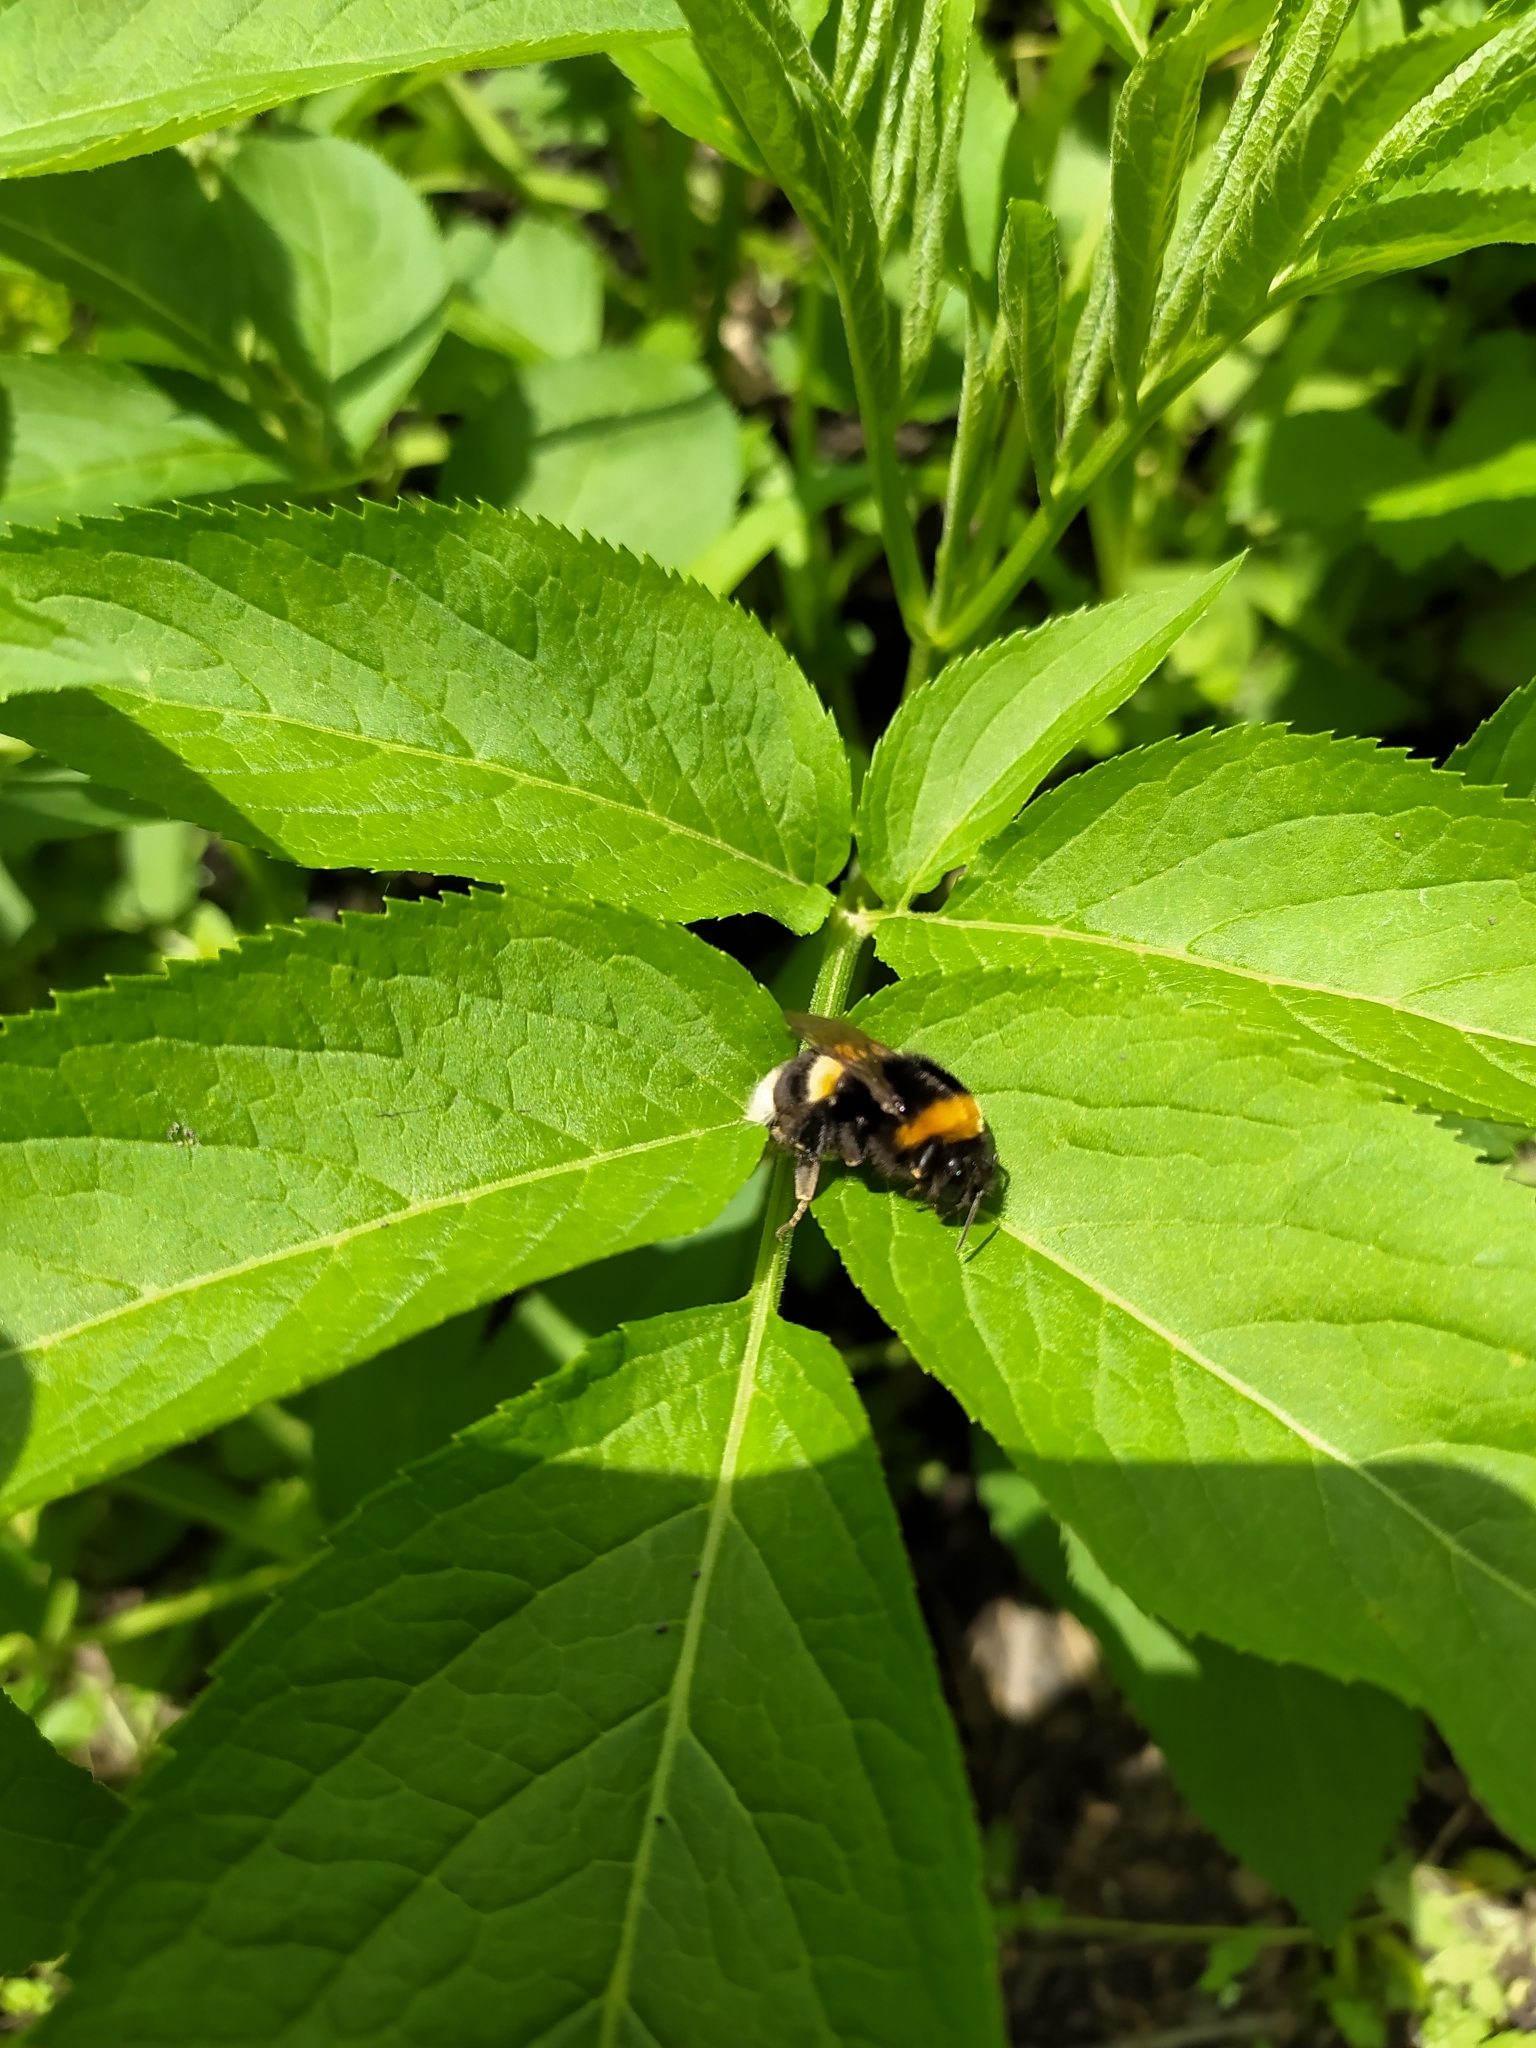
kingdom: Animalia
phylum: Arthropoda
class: Insecta
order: Hymenoptera
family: Apidae
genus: Bombus
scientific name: Bombus
